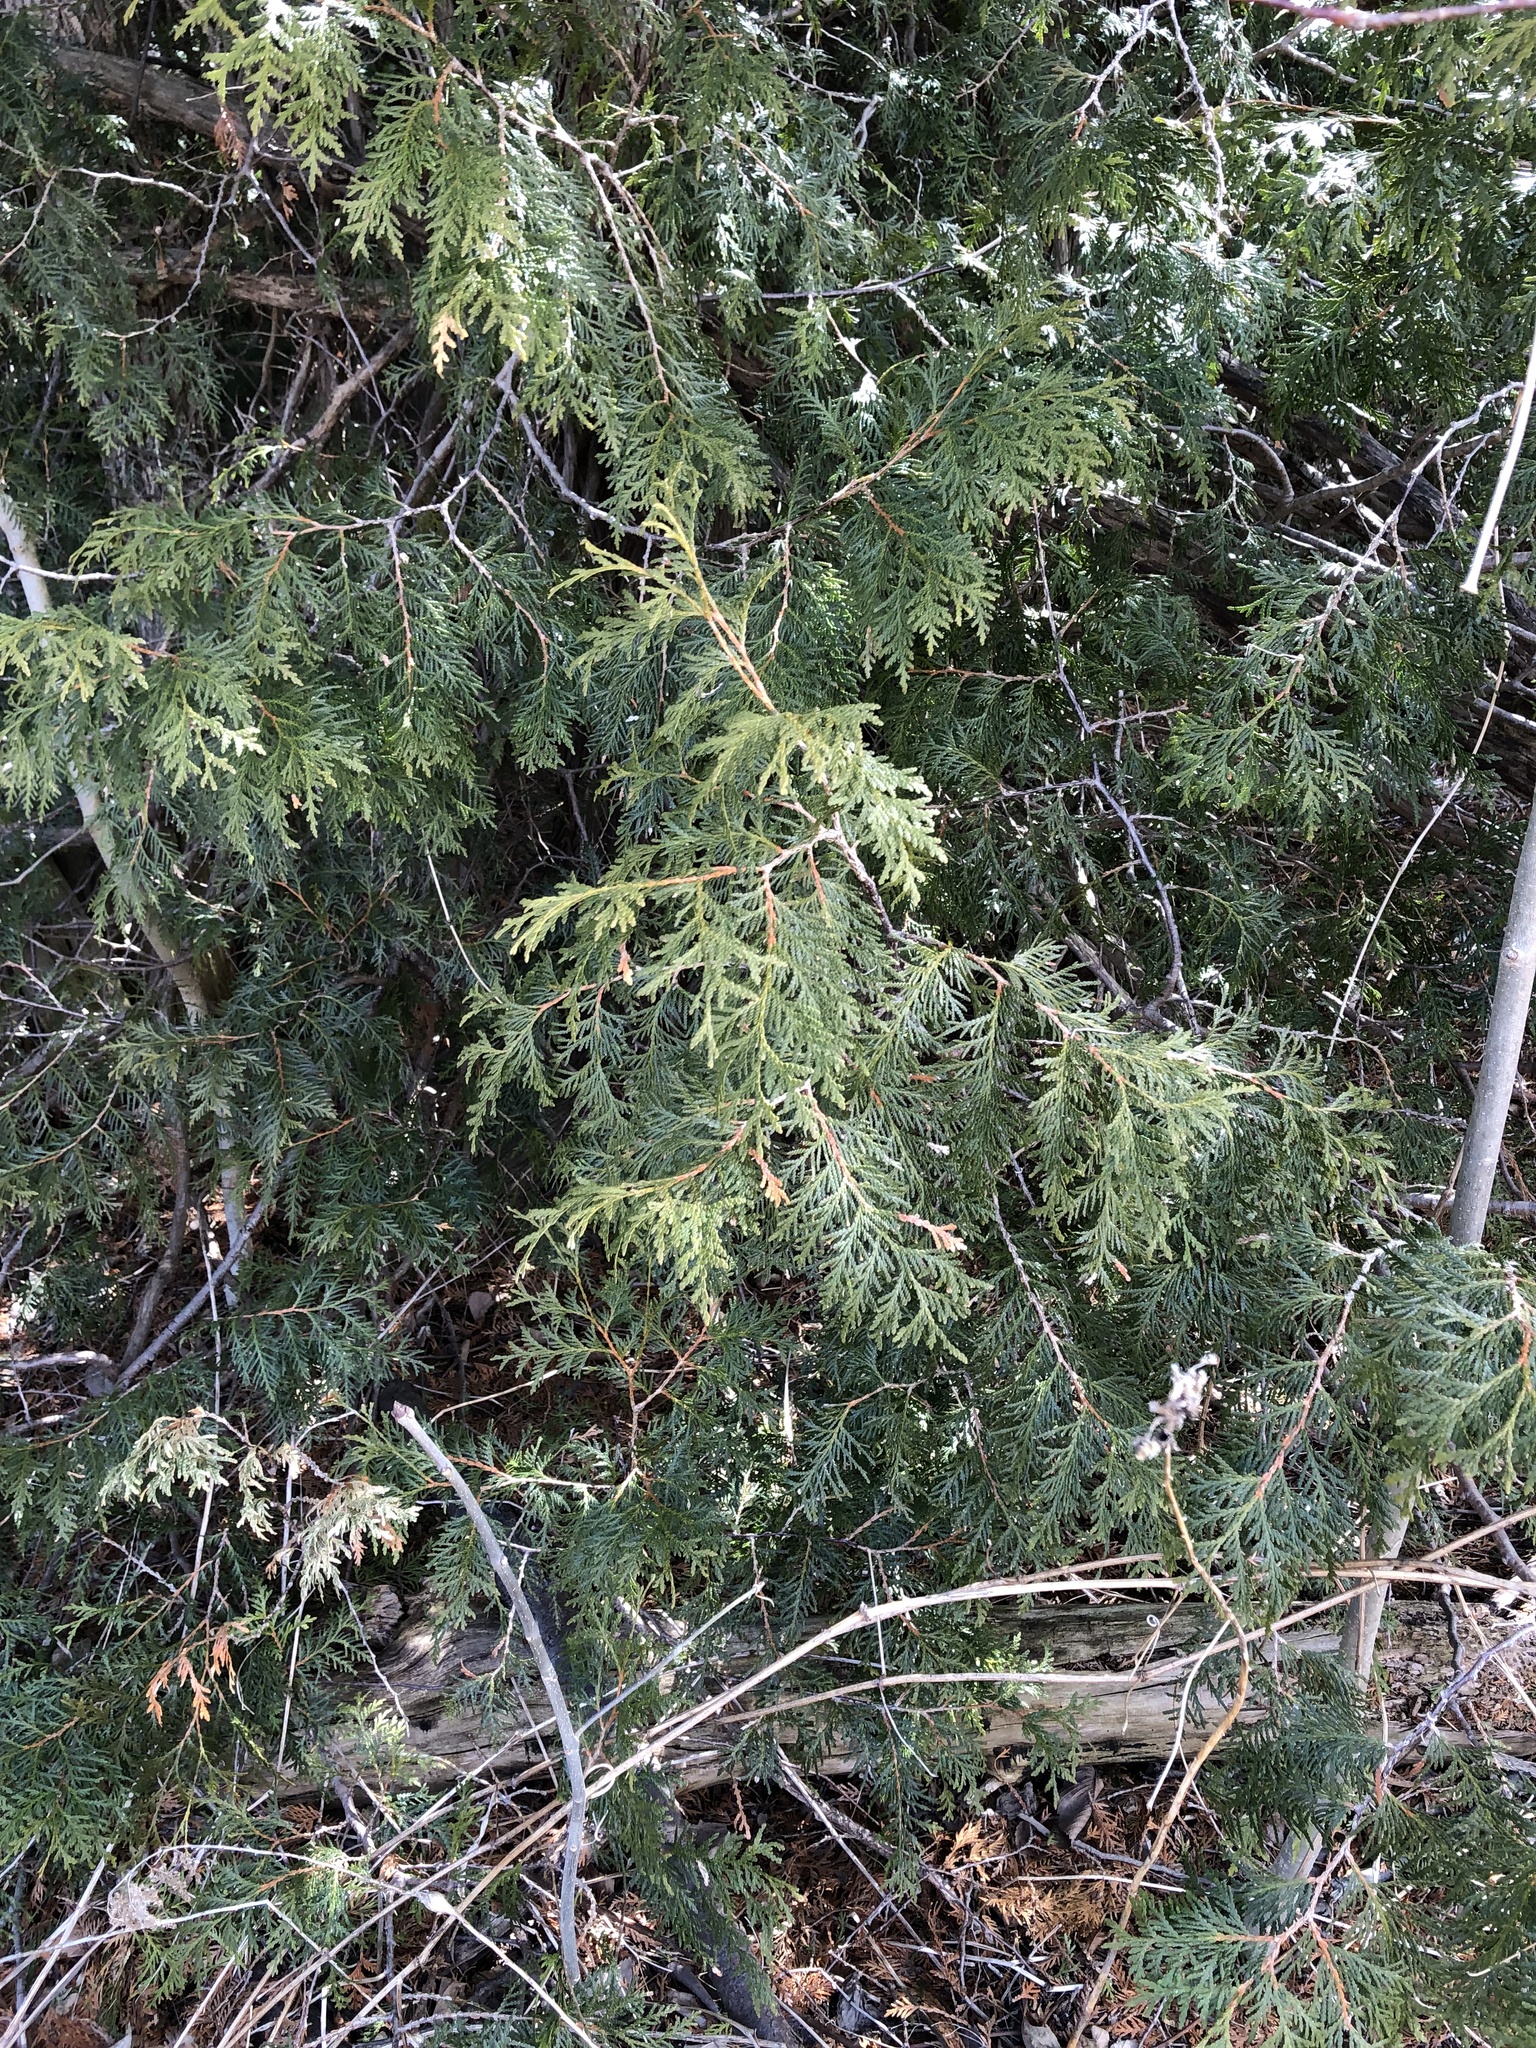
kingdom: Plantae
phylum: Tracheophyta
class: Pinopsida
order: Pinales
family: Cupressaceae
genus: Thuja
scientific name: Thuja occidentalis
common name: Northern white-cedar
